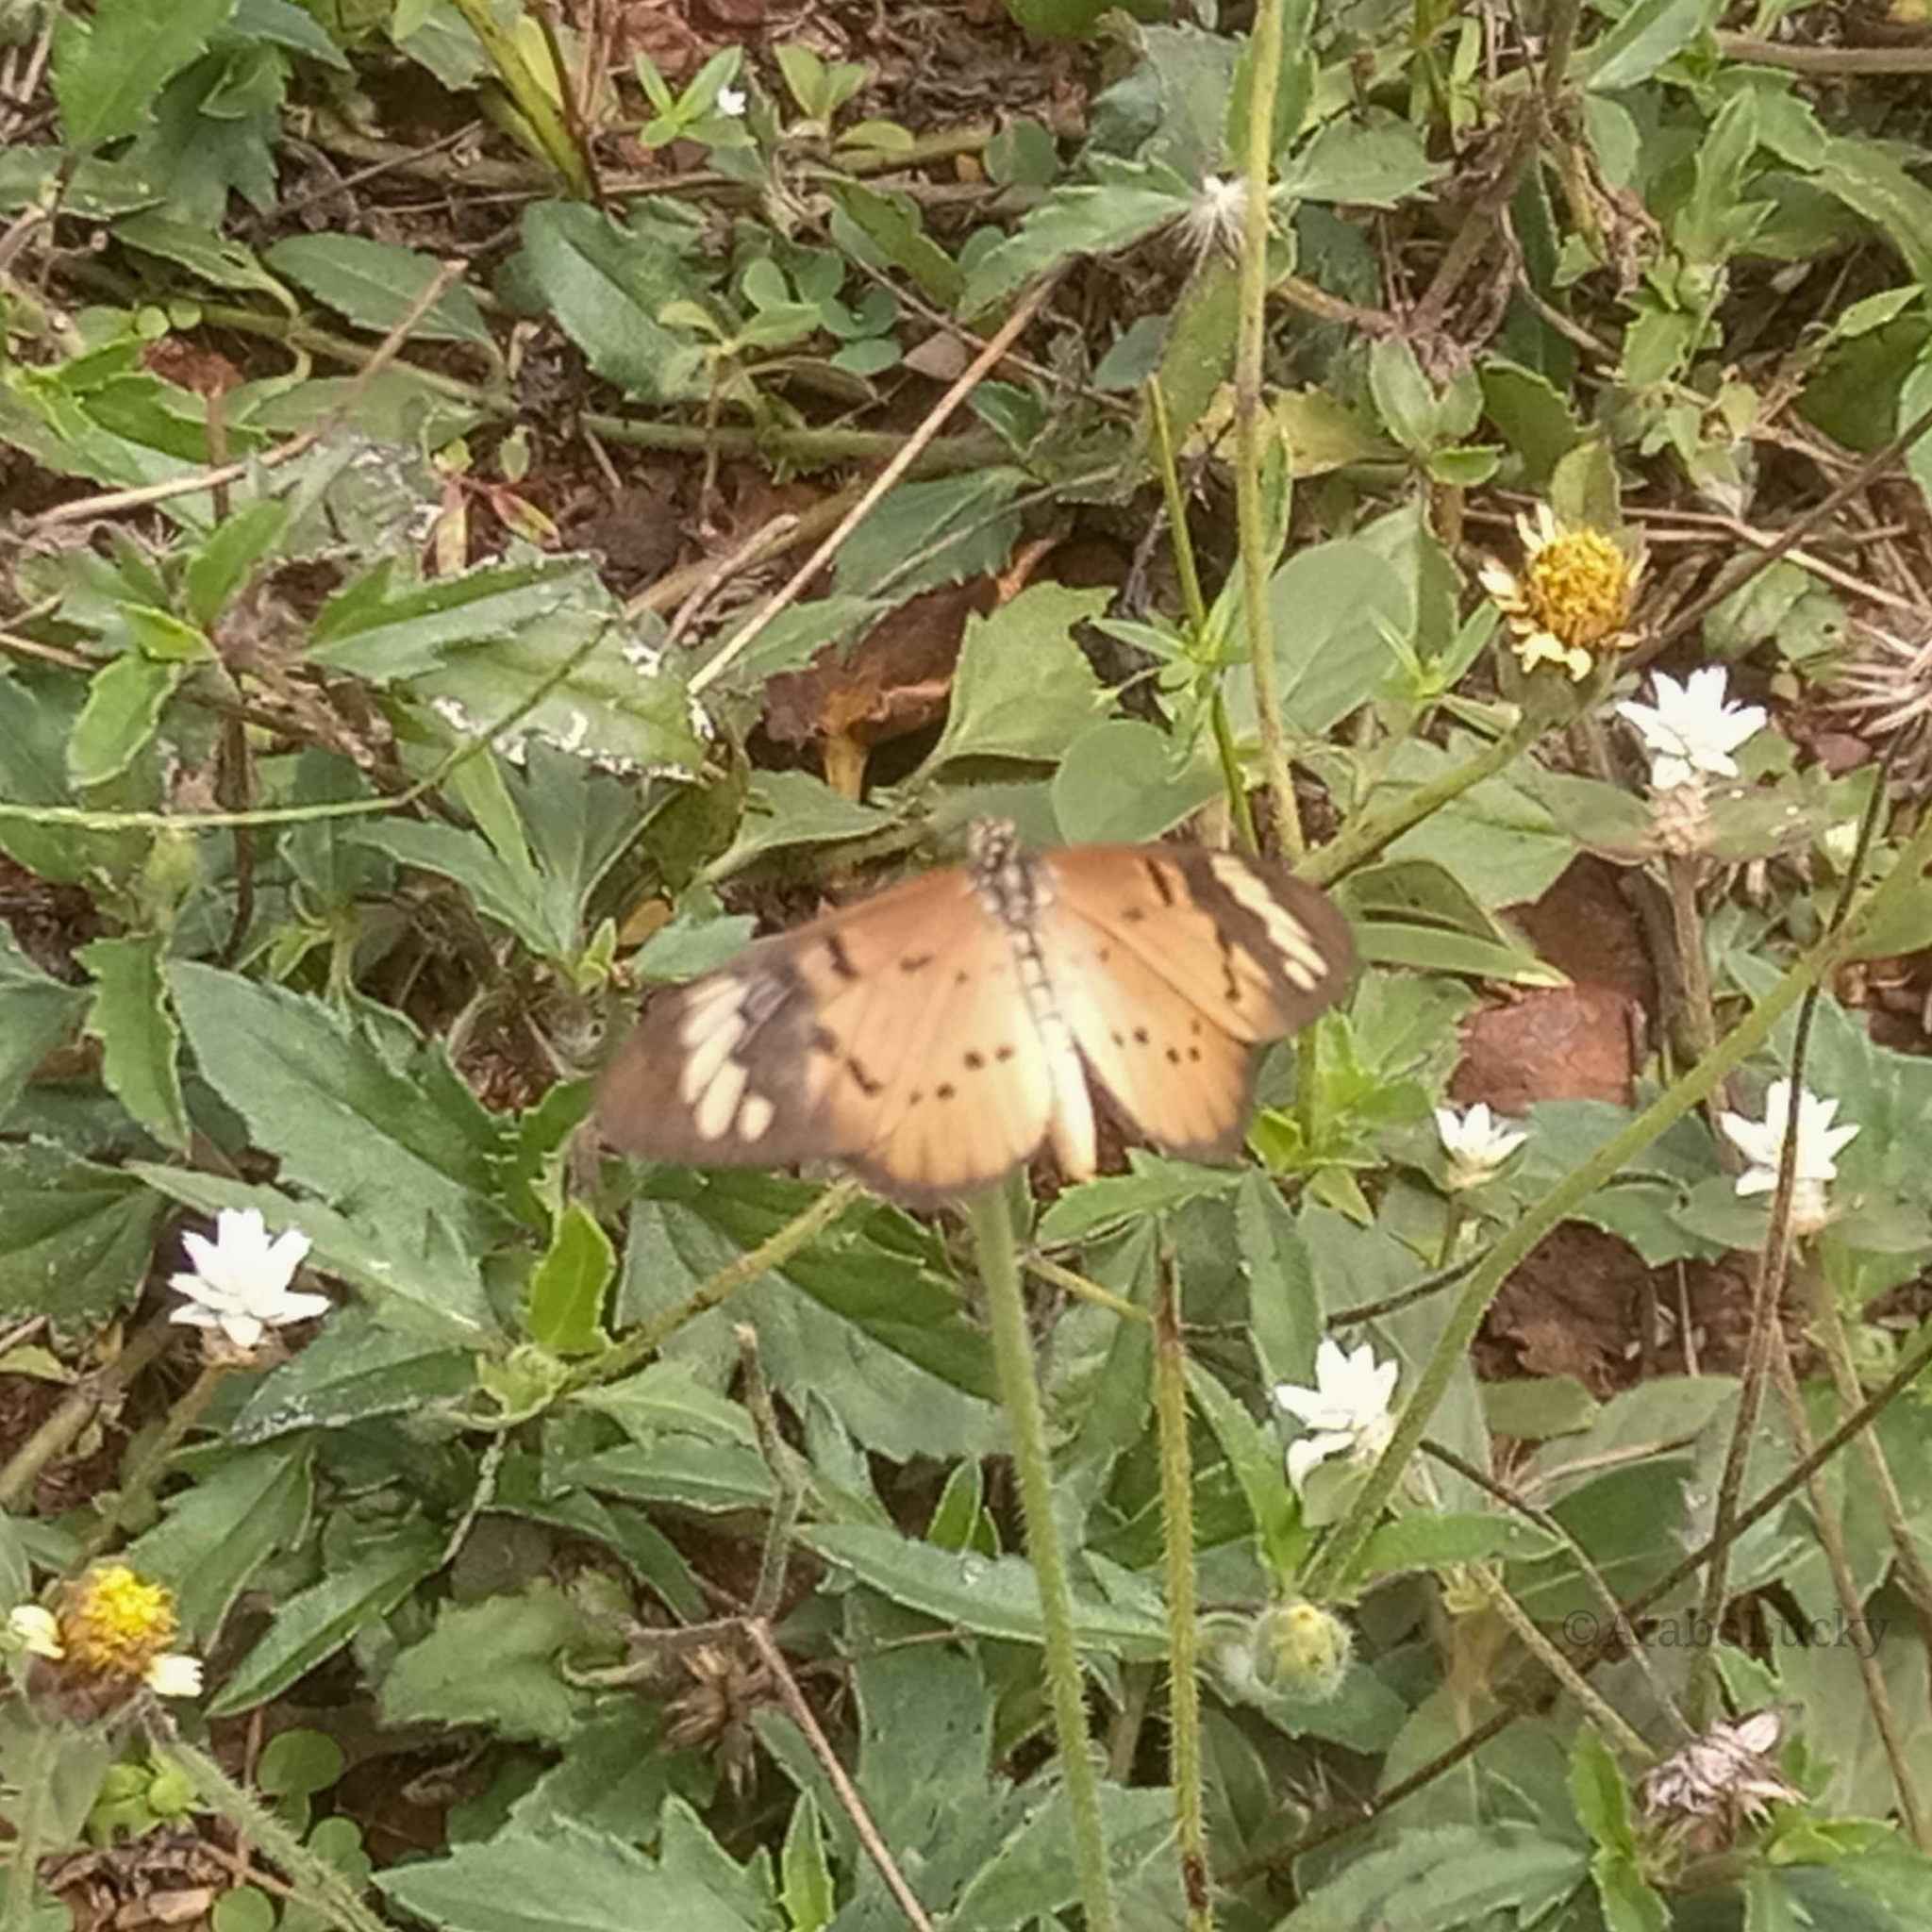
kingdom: Animalia
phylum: Arthropoda
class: Insecta
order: Lepidoptera
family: Nymphalidae
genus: Acraea
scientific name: Acraea Telchinia encedon
